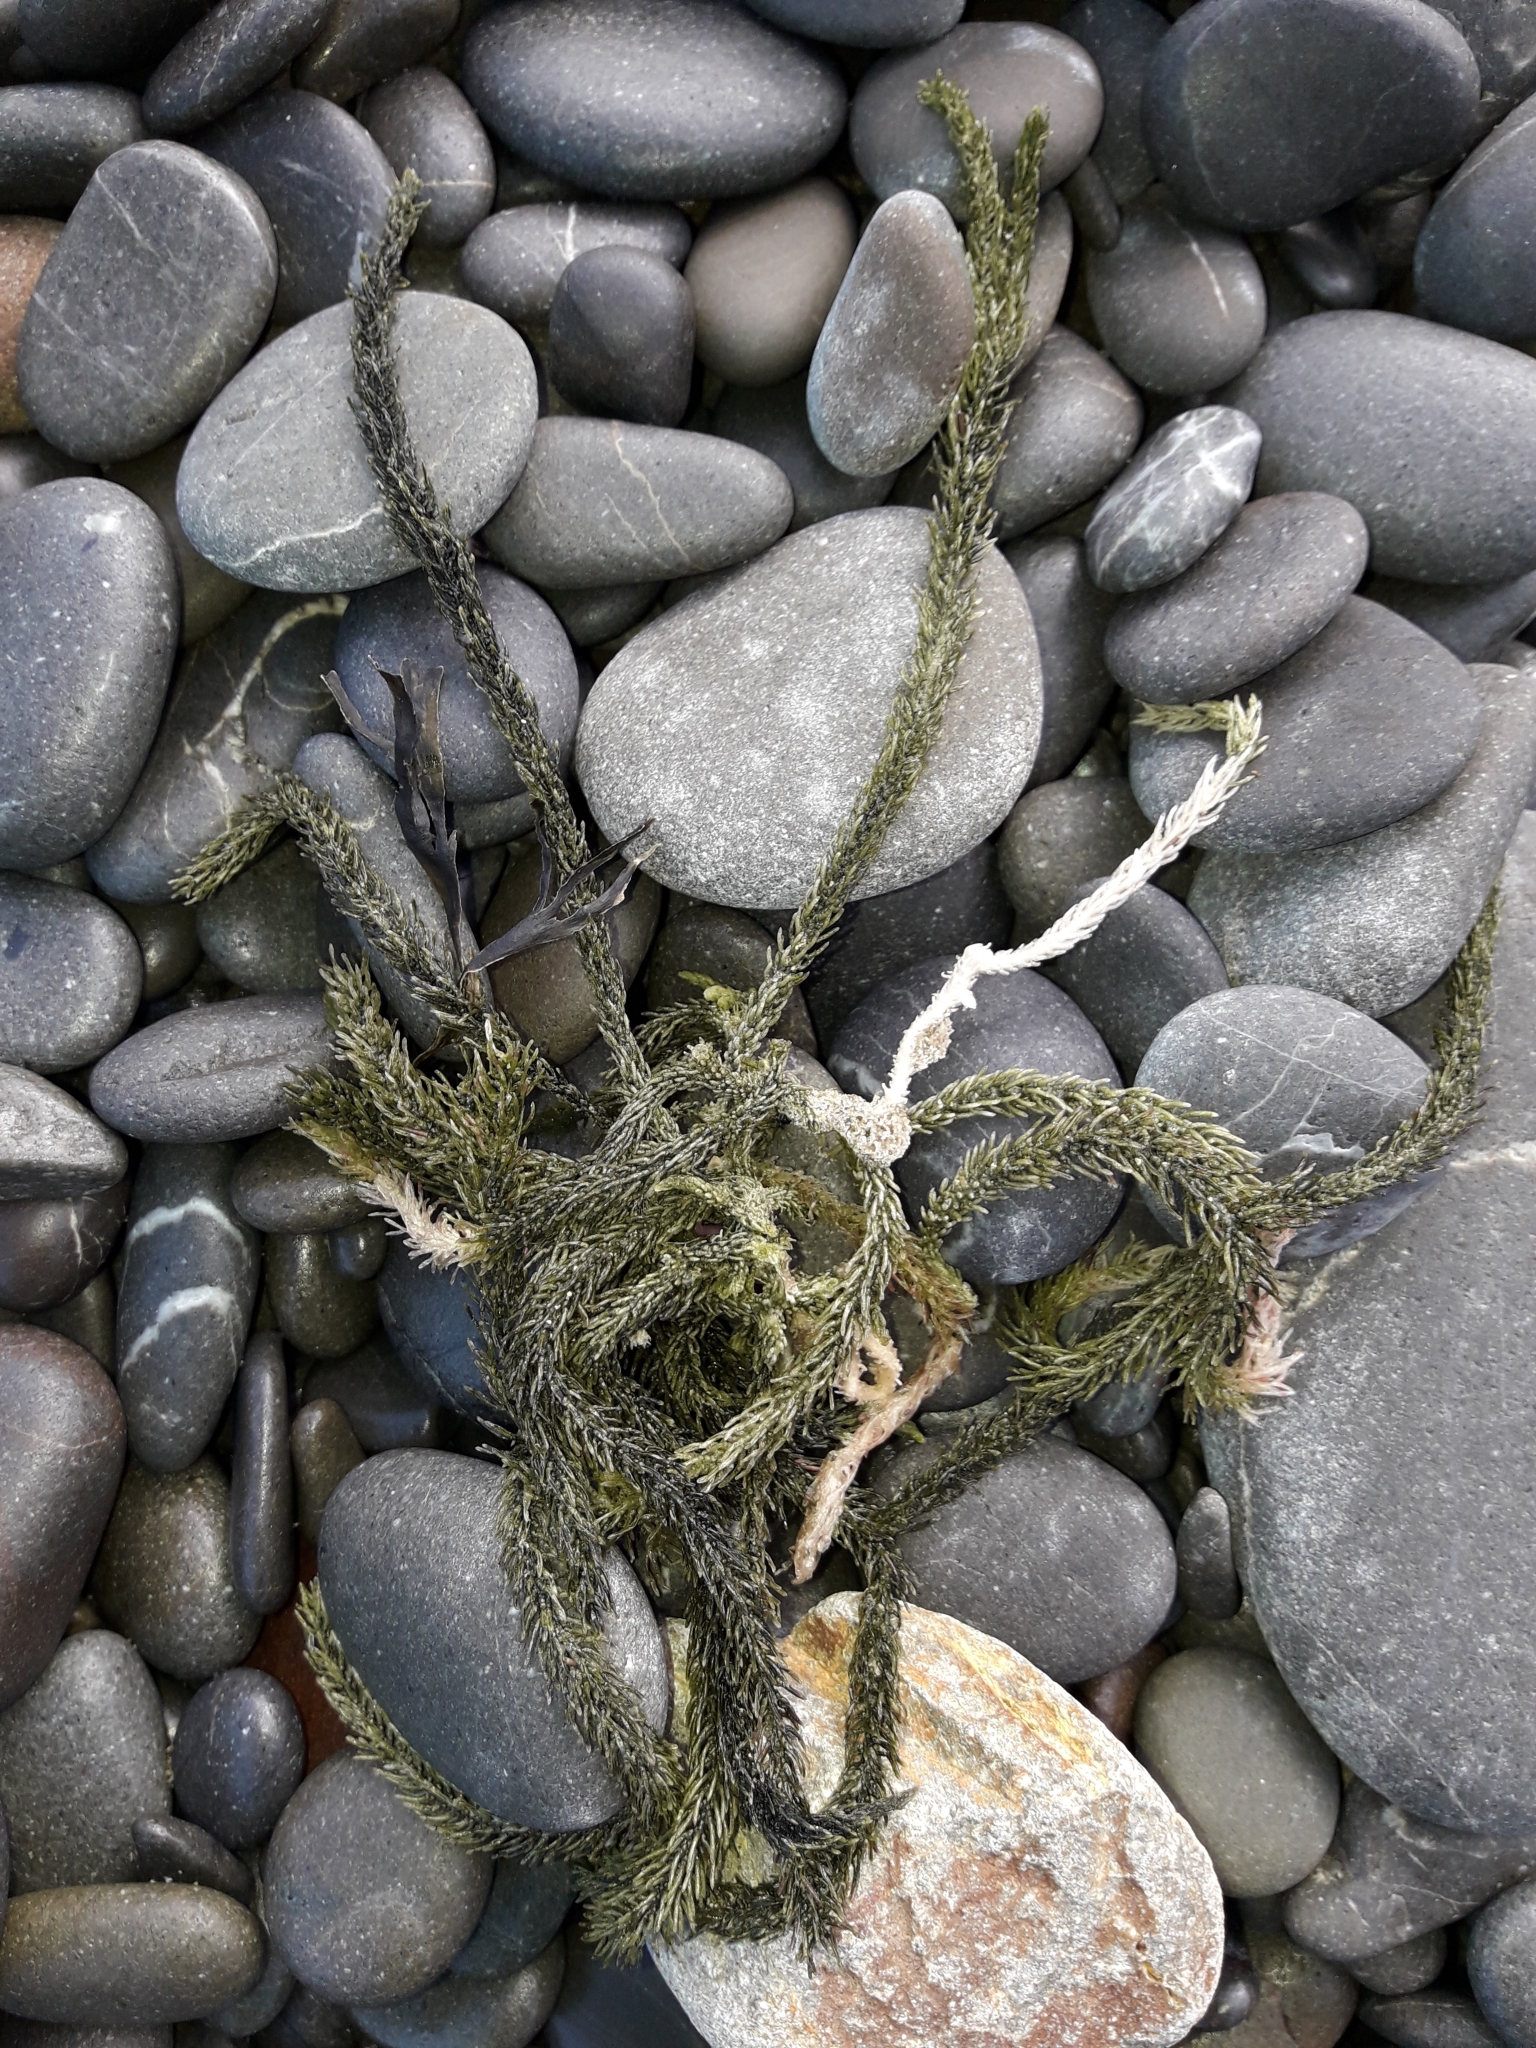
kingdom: Plantae
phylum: Chlorophyta
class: Ulvophyceae
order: Bryopsidales
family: Caulerpaceae
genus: Caulerpa
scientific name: Caulerpa brownii
